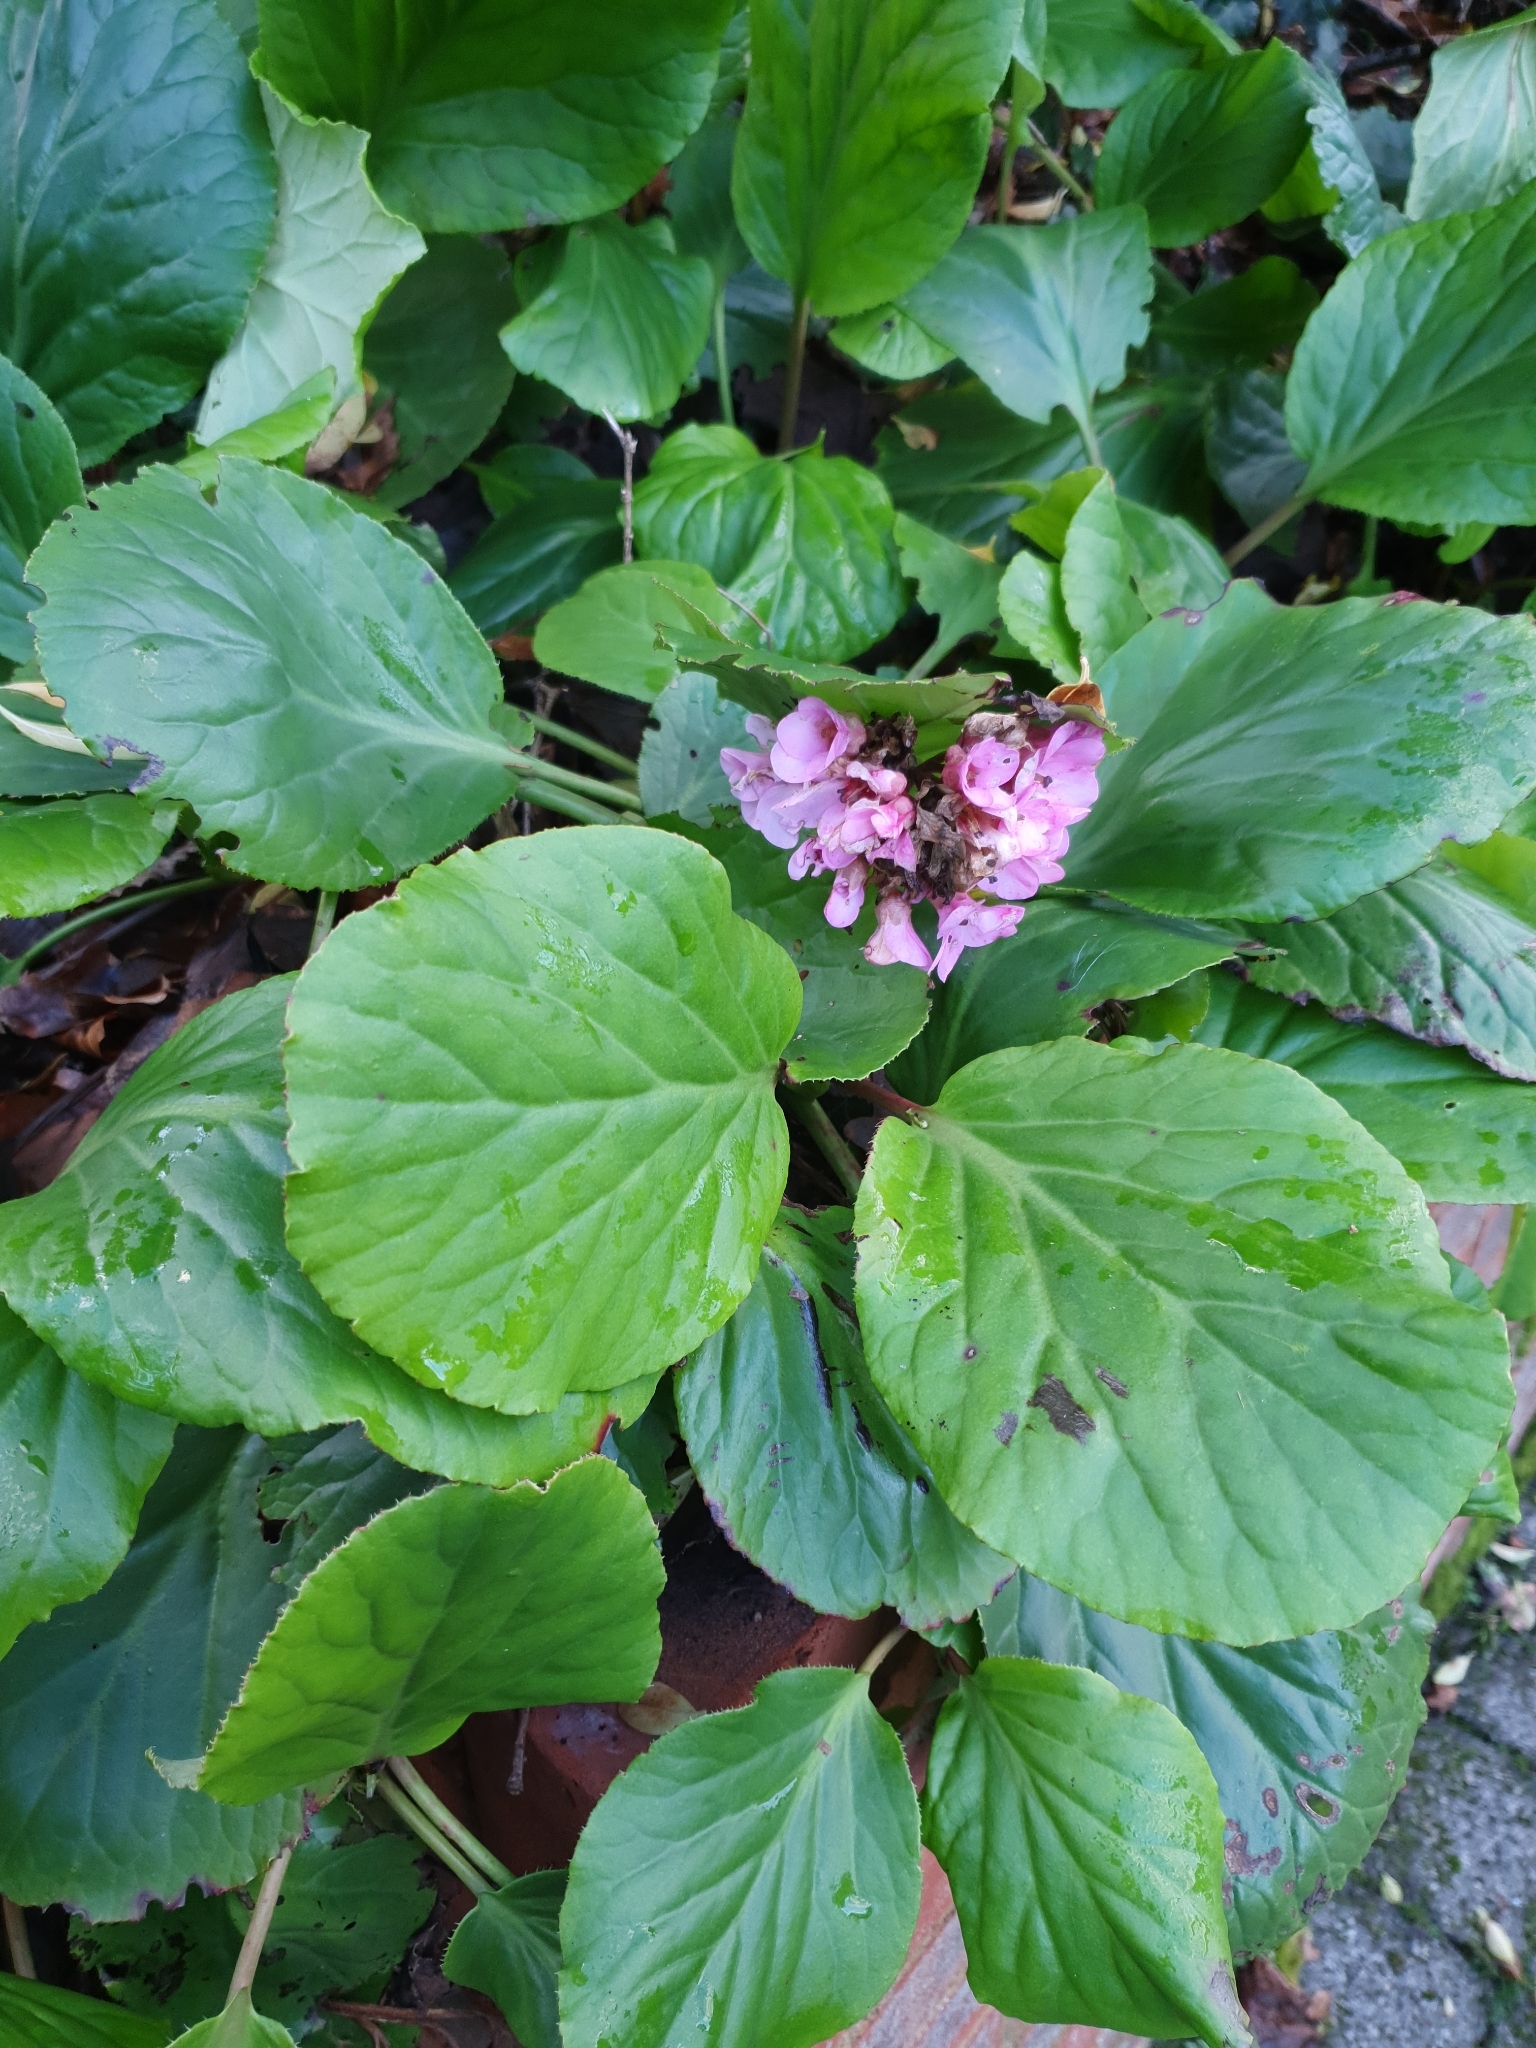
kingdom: Plantae
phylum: Tracheophyta
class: Magnoliopsida
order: Saxifragales
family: Saxifragaceae
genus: Bergenia
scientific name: Bergenia crassifolia
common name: Elephant-ears
